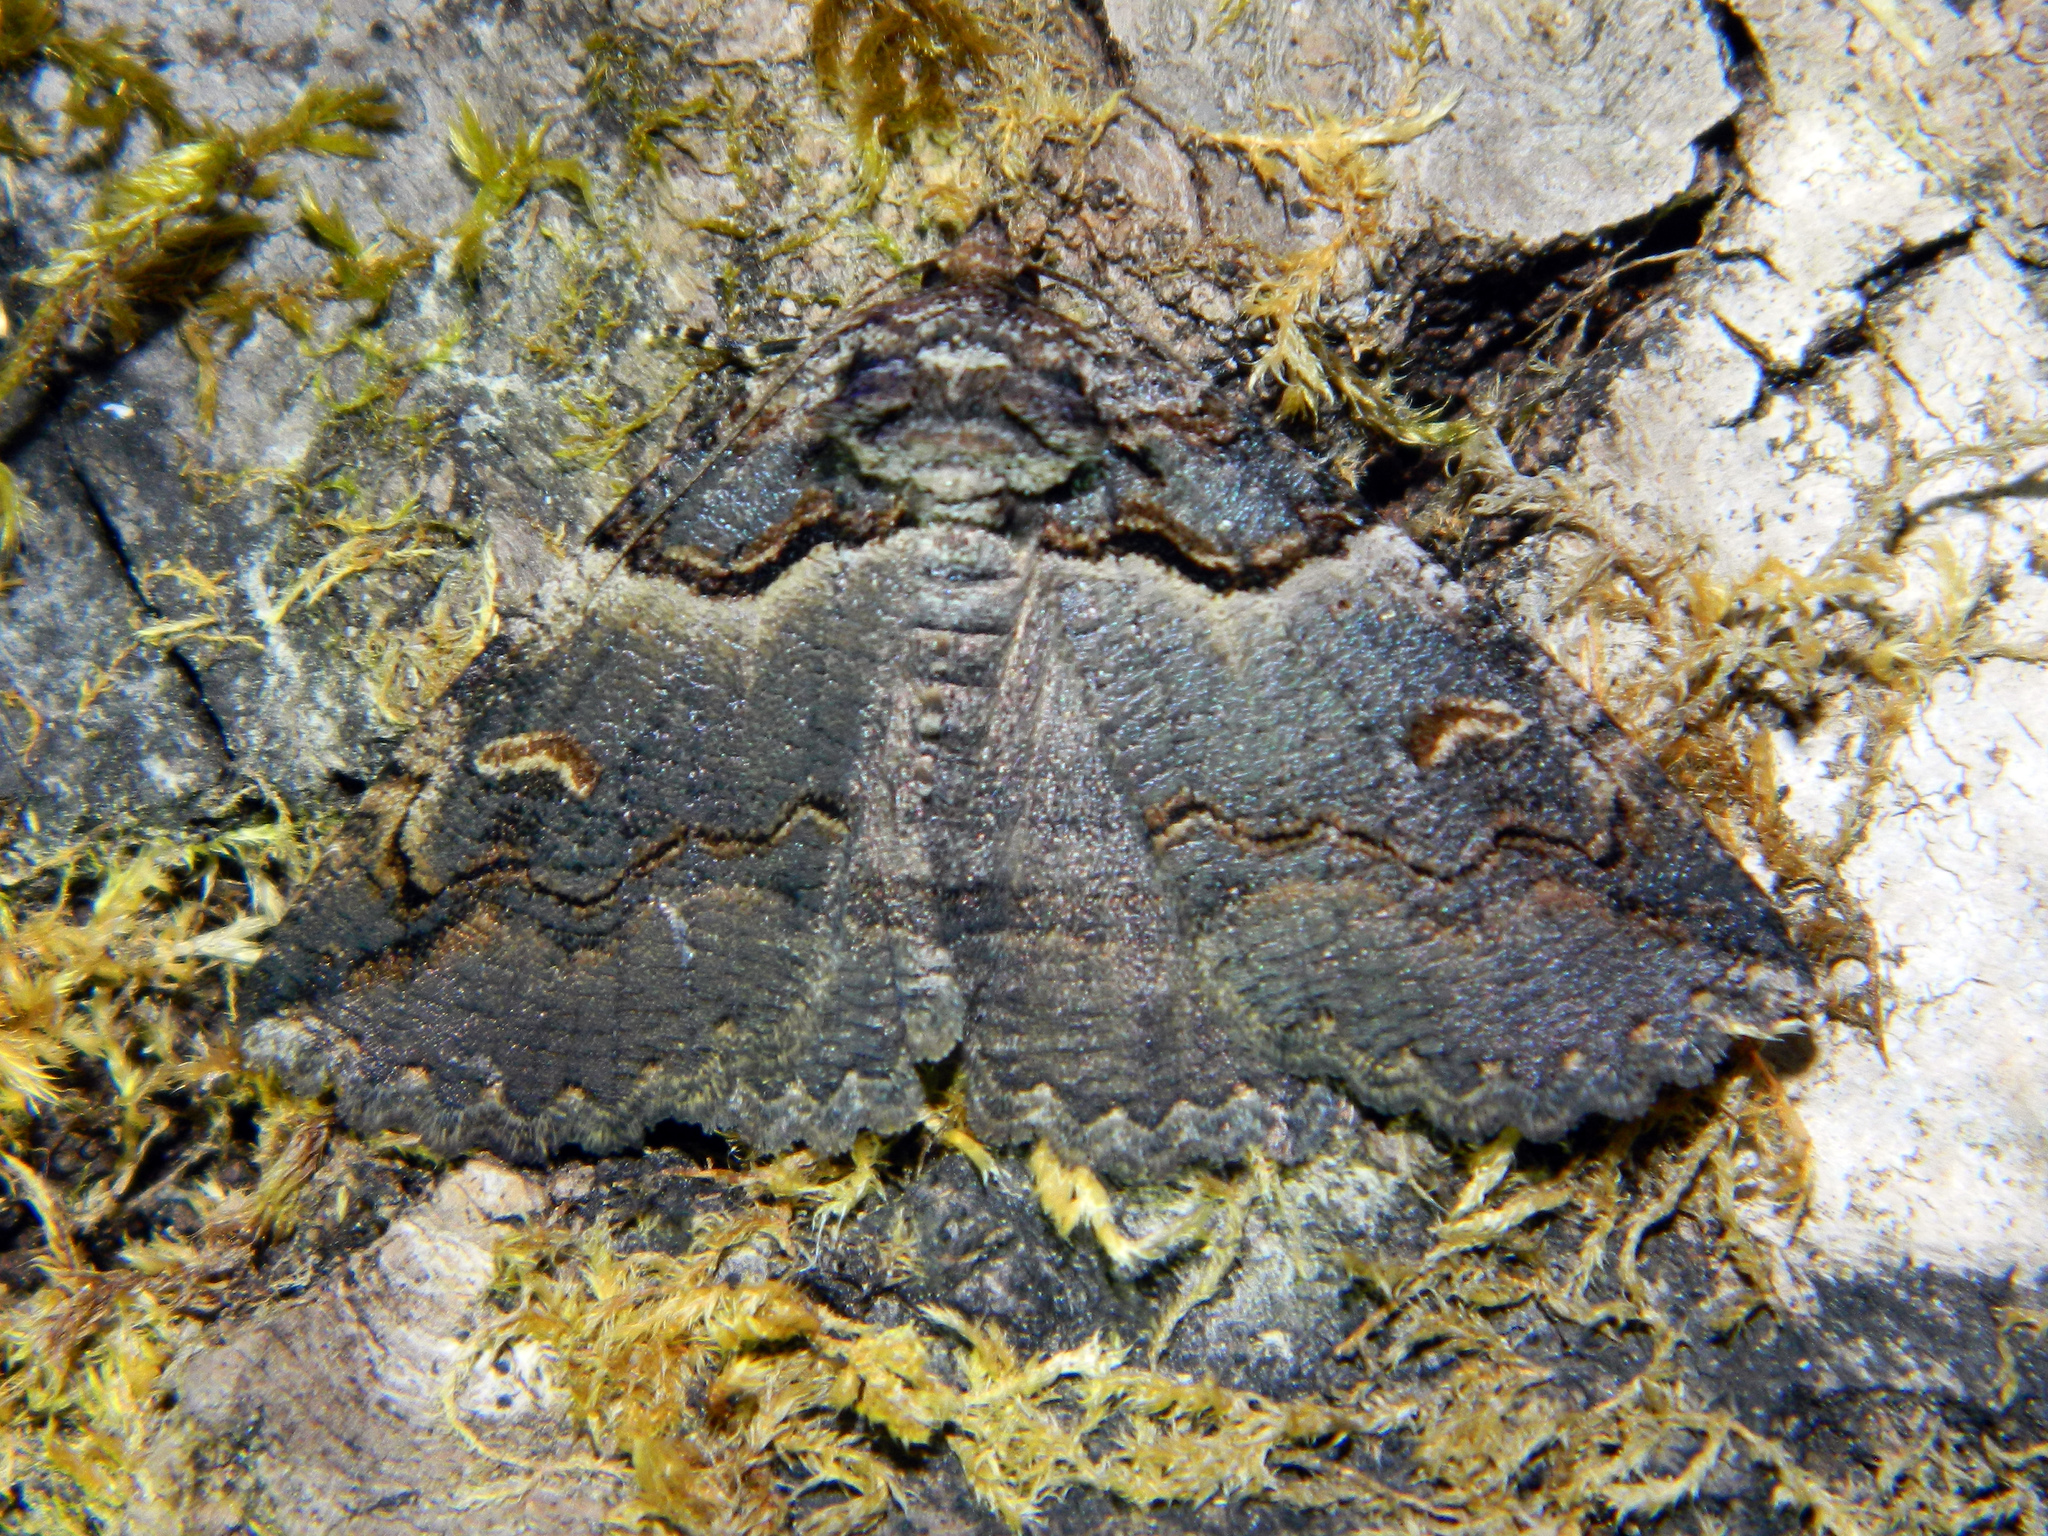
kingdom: Animalia
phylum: Arthropoda
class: Insecta
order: Lepidoptera
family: Erebidae
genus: Zale
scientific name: Zale intenta
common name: Intent zale moth
